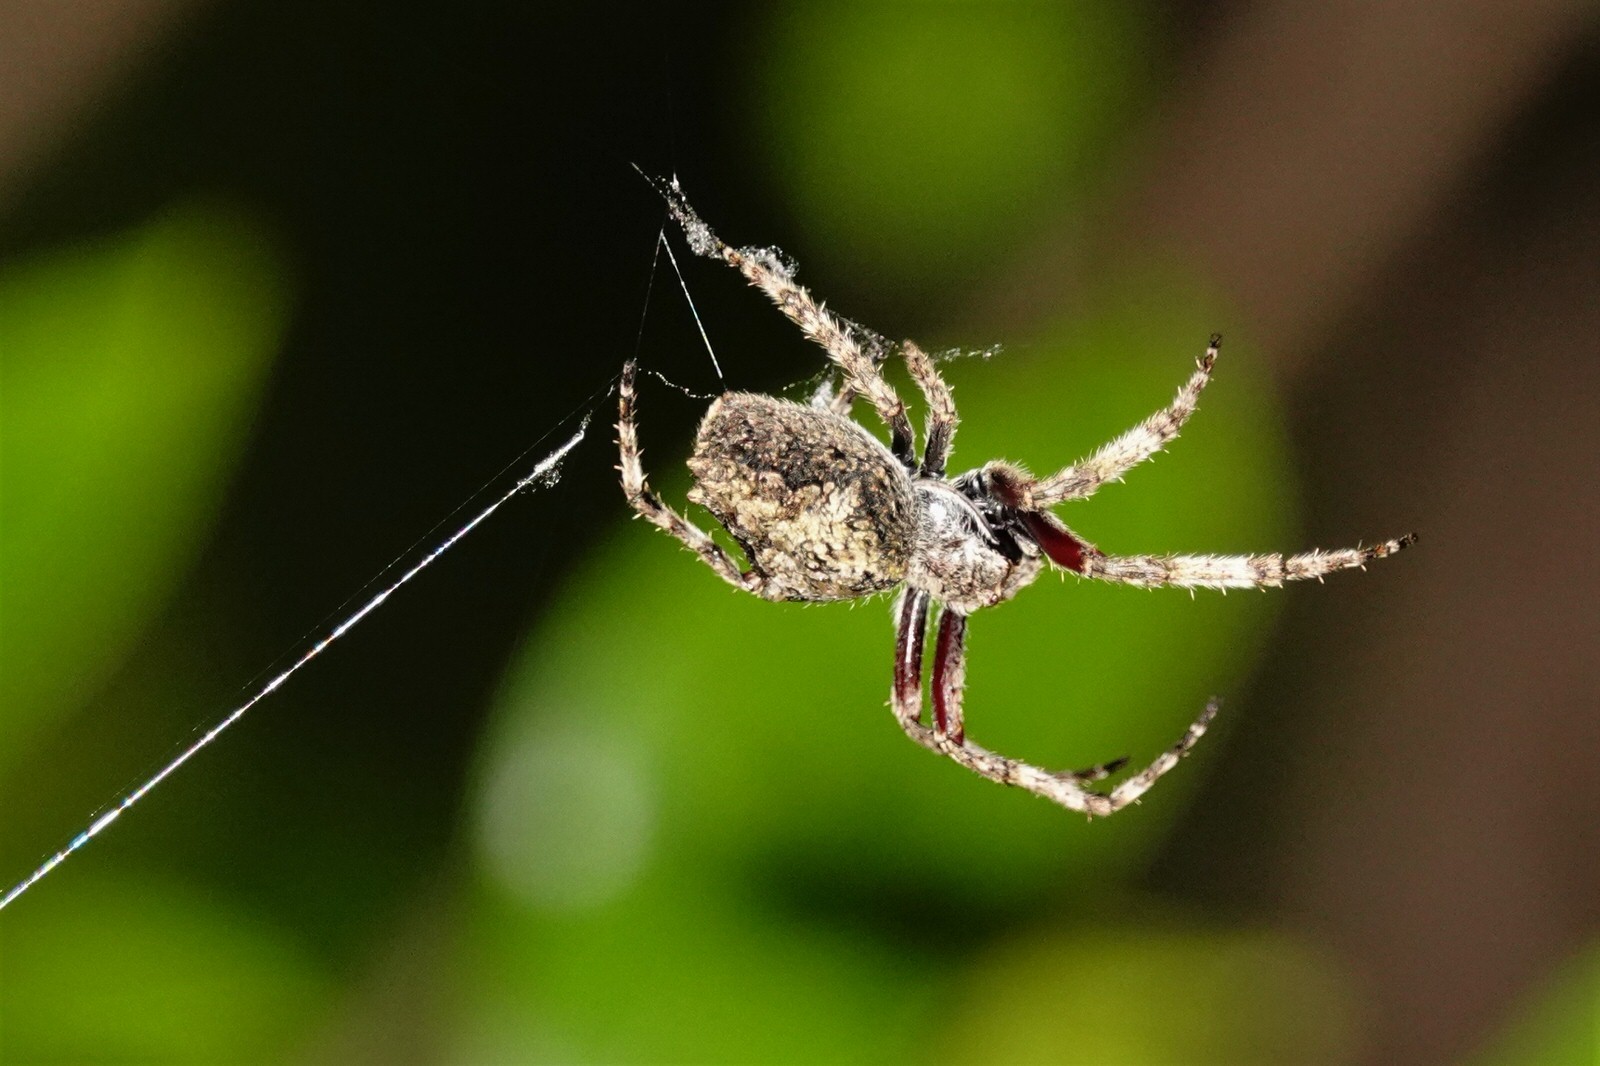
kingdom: Animalia
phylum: Arthropoda
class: Arachnida
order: Araneae
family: Araneidae
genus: Eriophora
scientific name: Eriophora pustulosa
